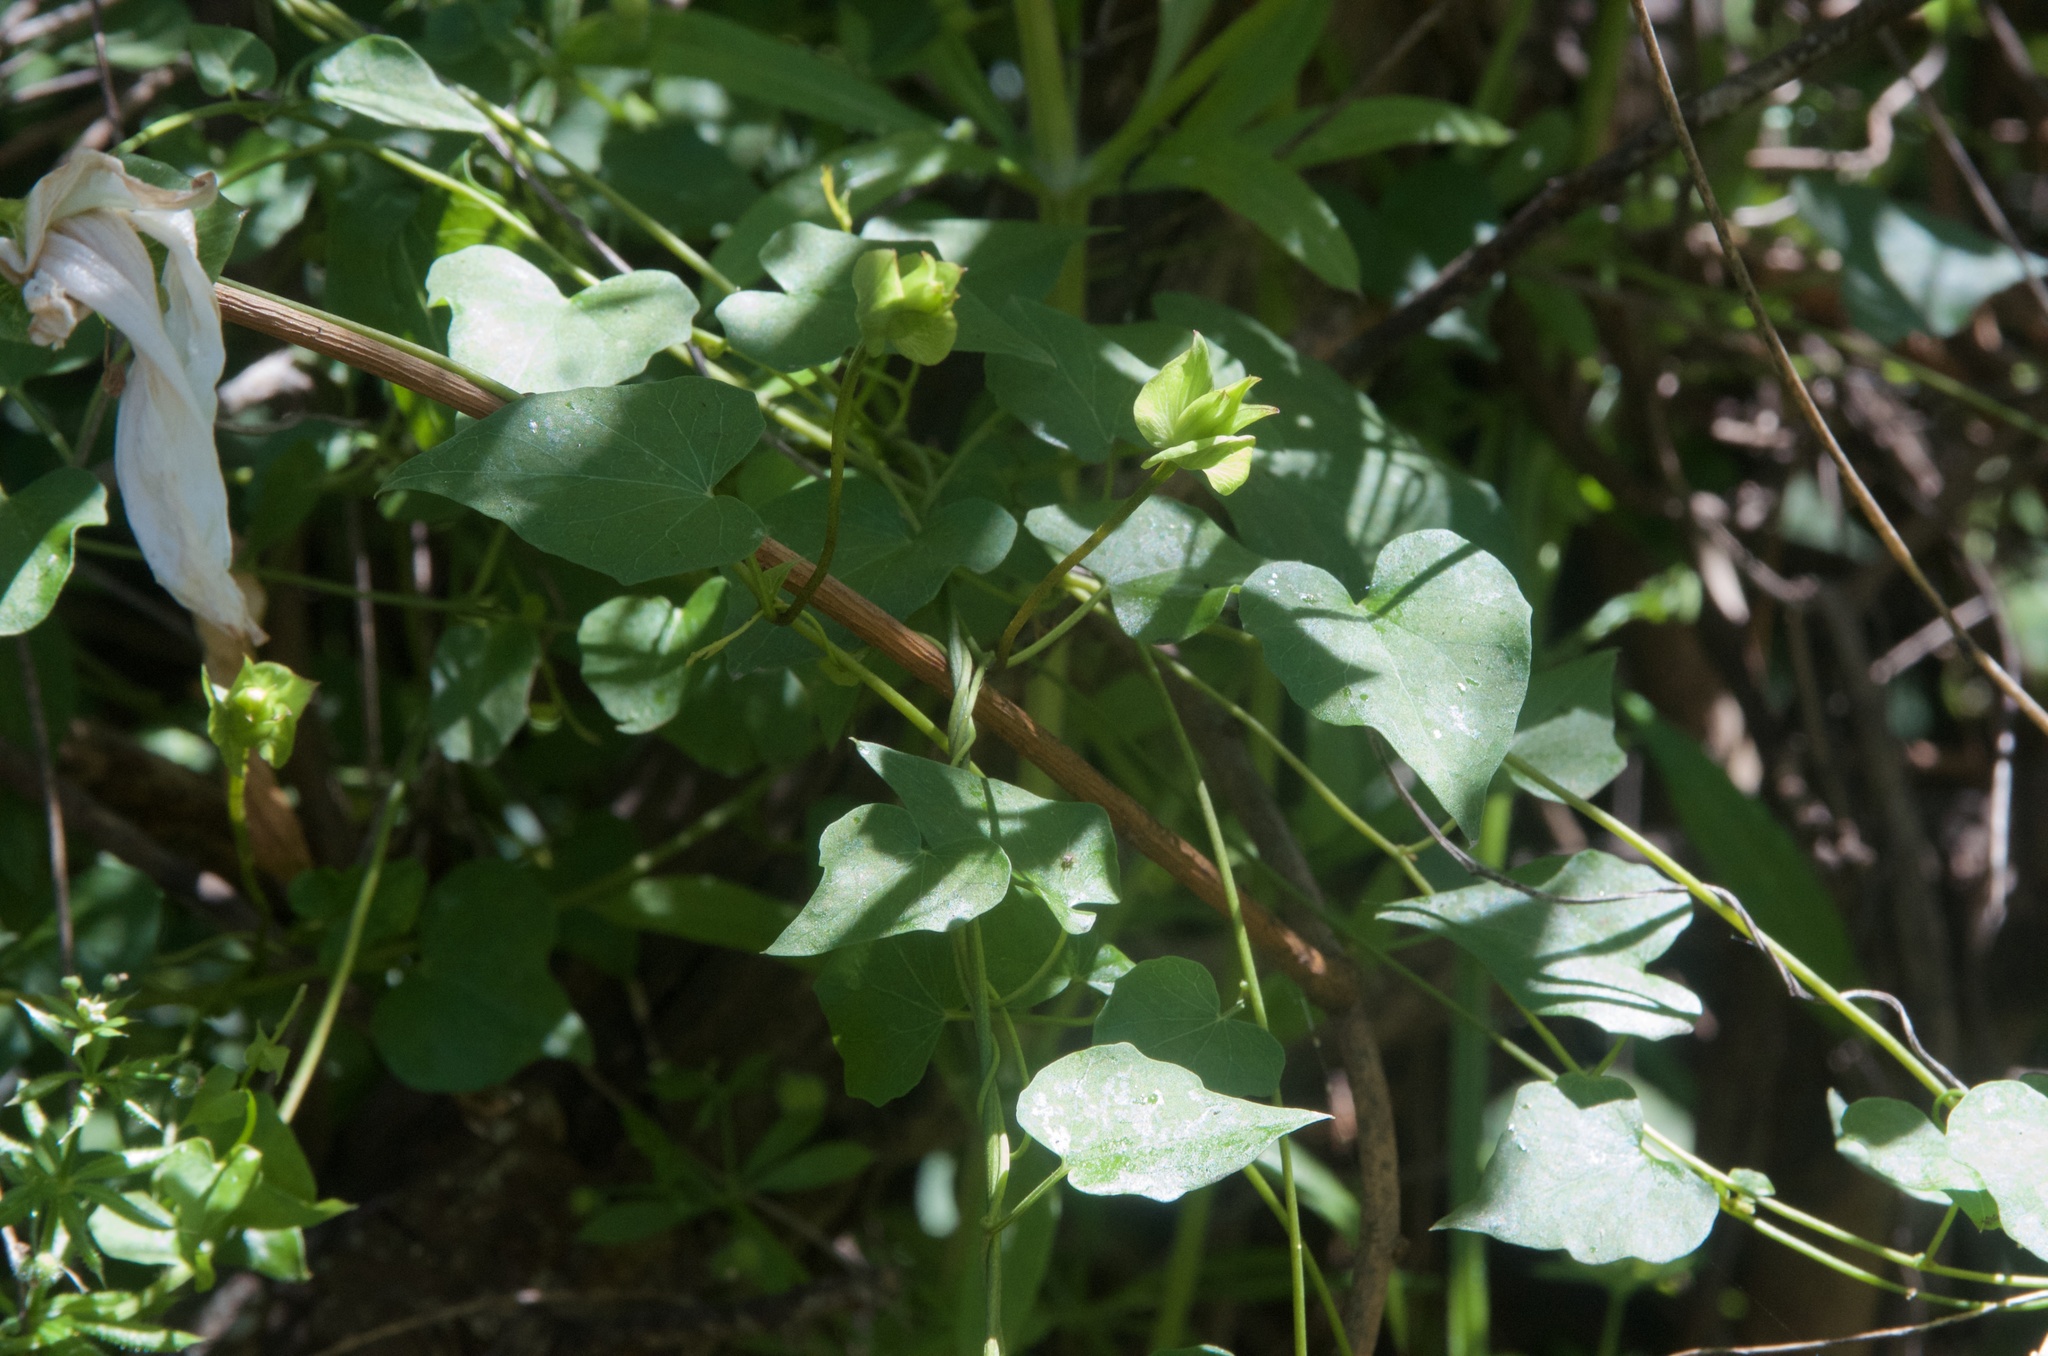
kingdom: Plantae
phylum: Tracheophyta
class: Magnoliopsida
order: Solanales
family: Convolvulaceae
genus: Calystegia
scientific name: Calystegia tuguriorum
